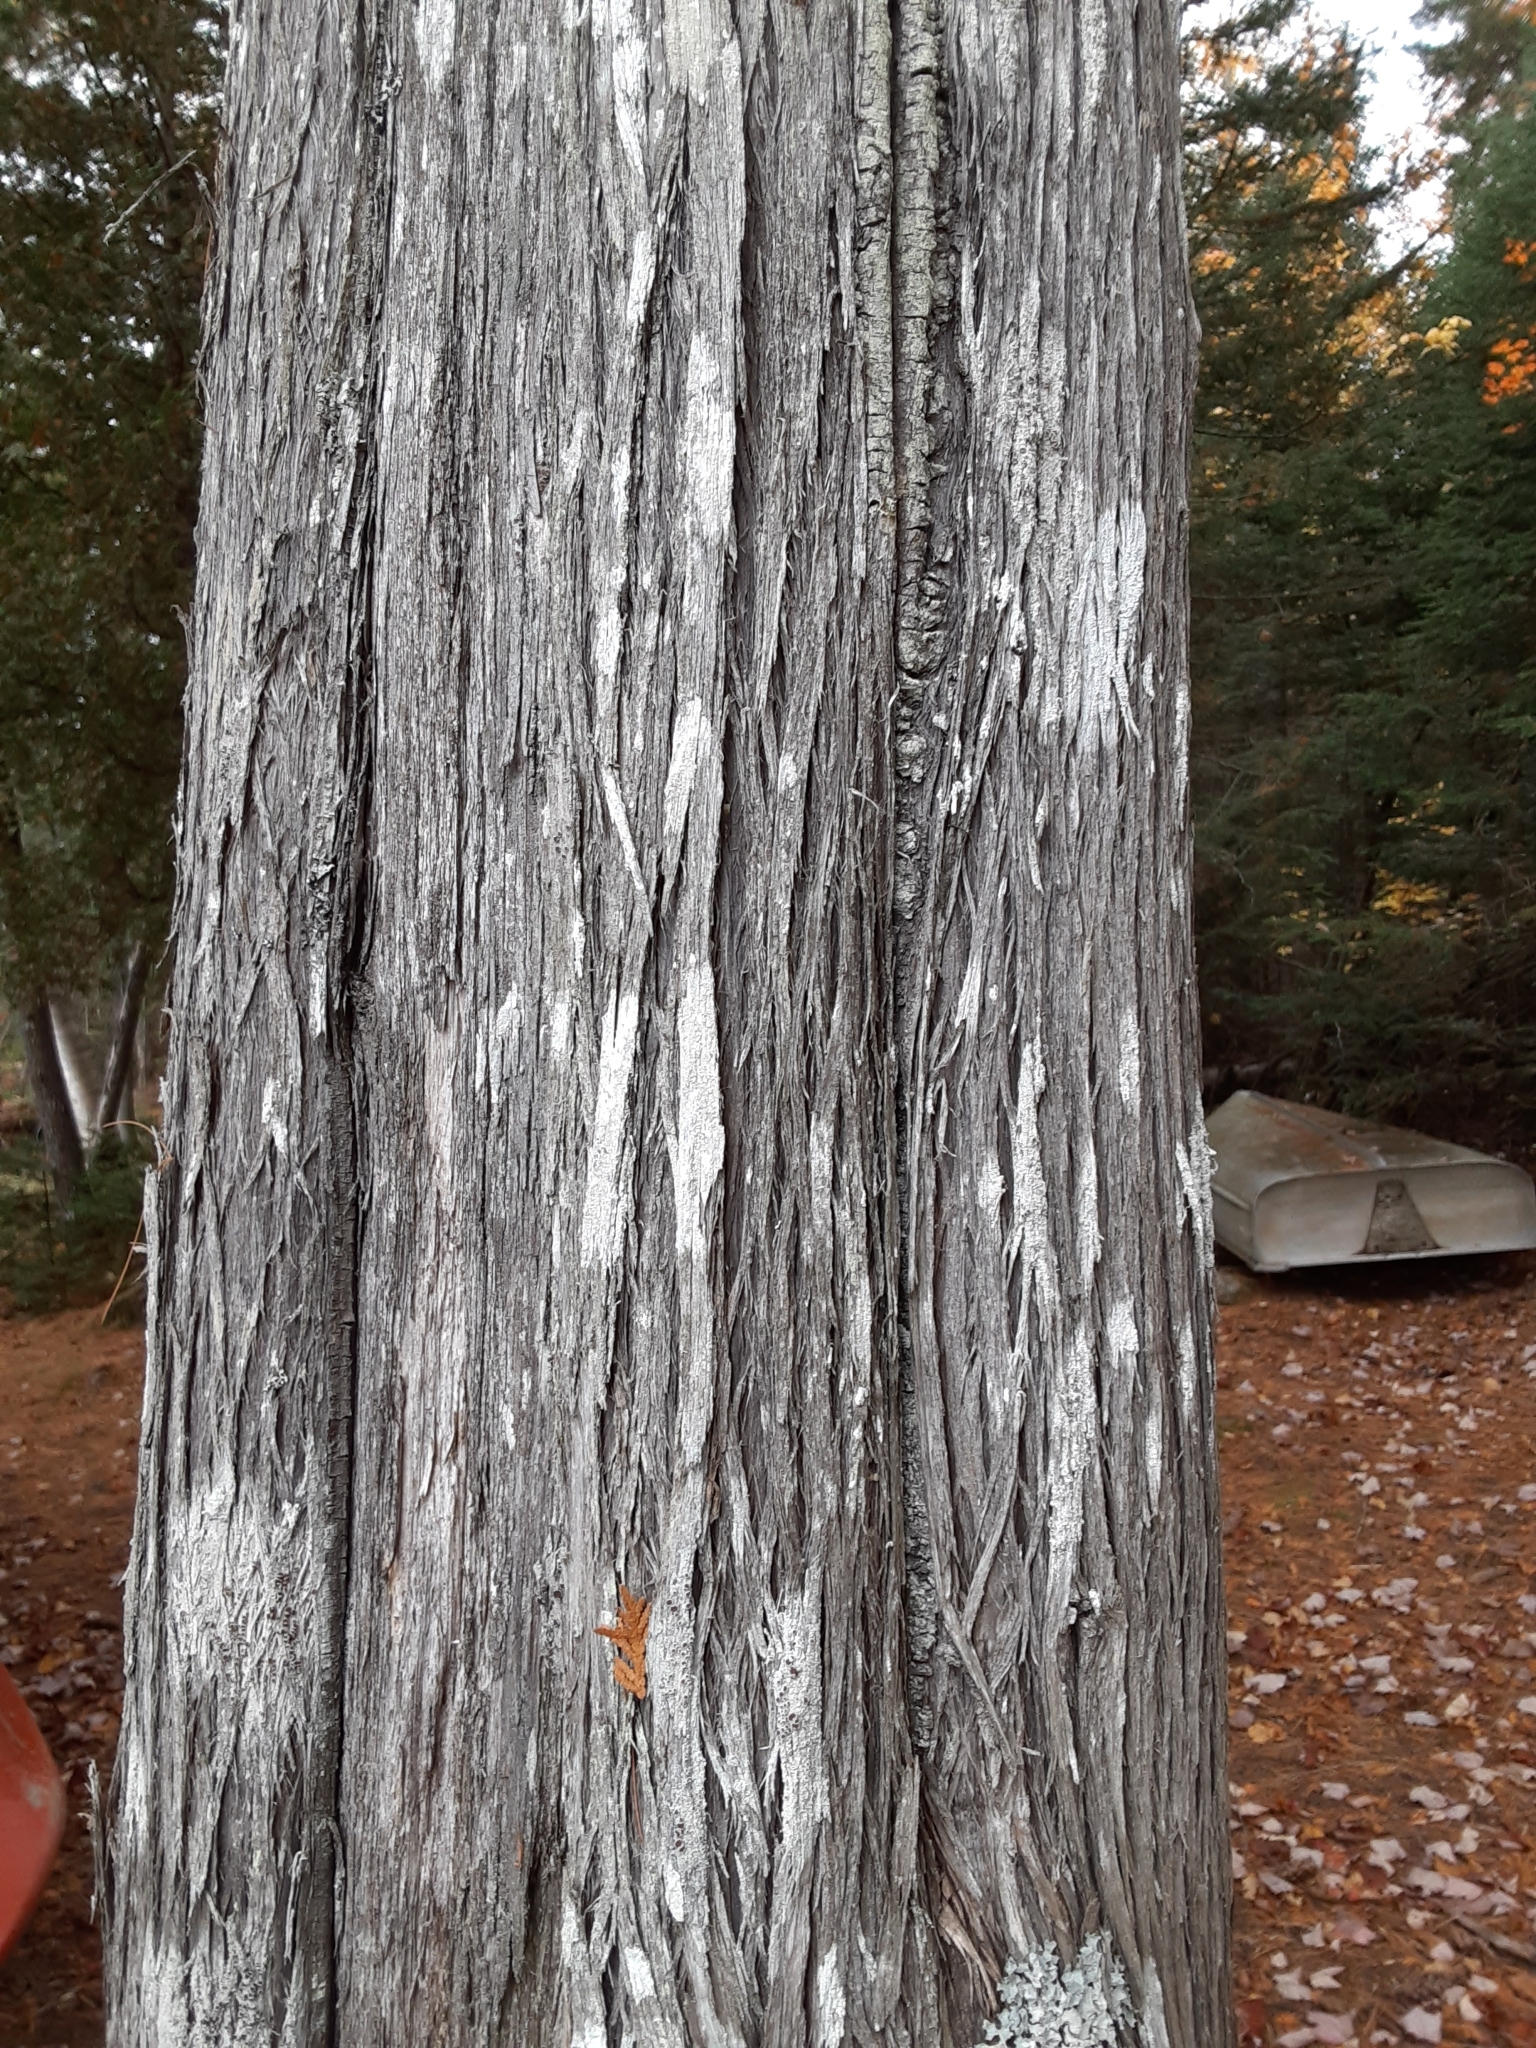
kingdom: Plantae
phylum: Tracheophyta
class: Pinopsida
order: Pinales
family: Cupressaceae
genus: Thuja
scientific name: Thuja occidentalis
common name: Northern white-cedar
